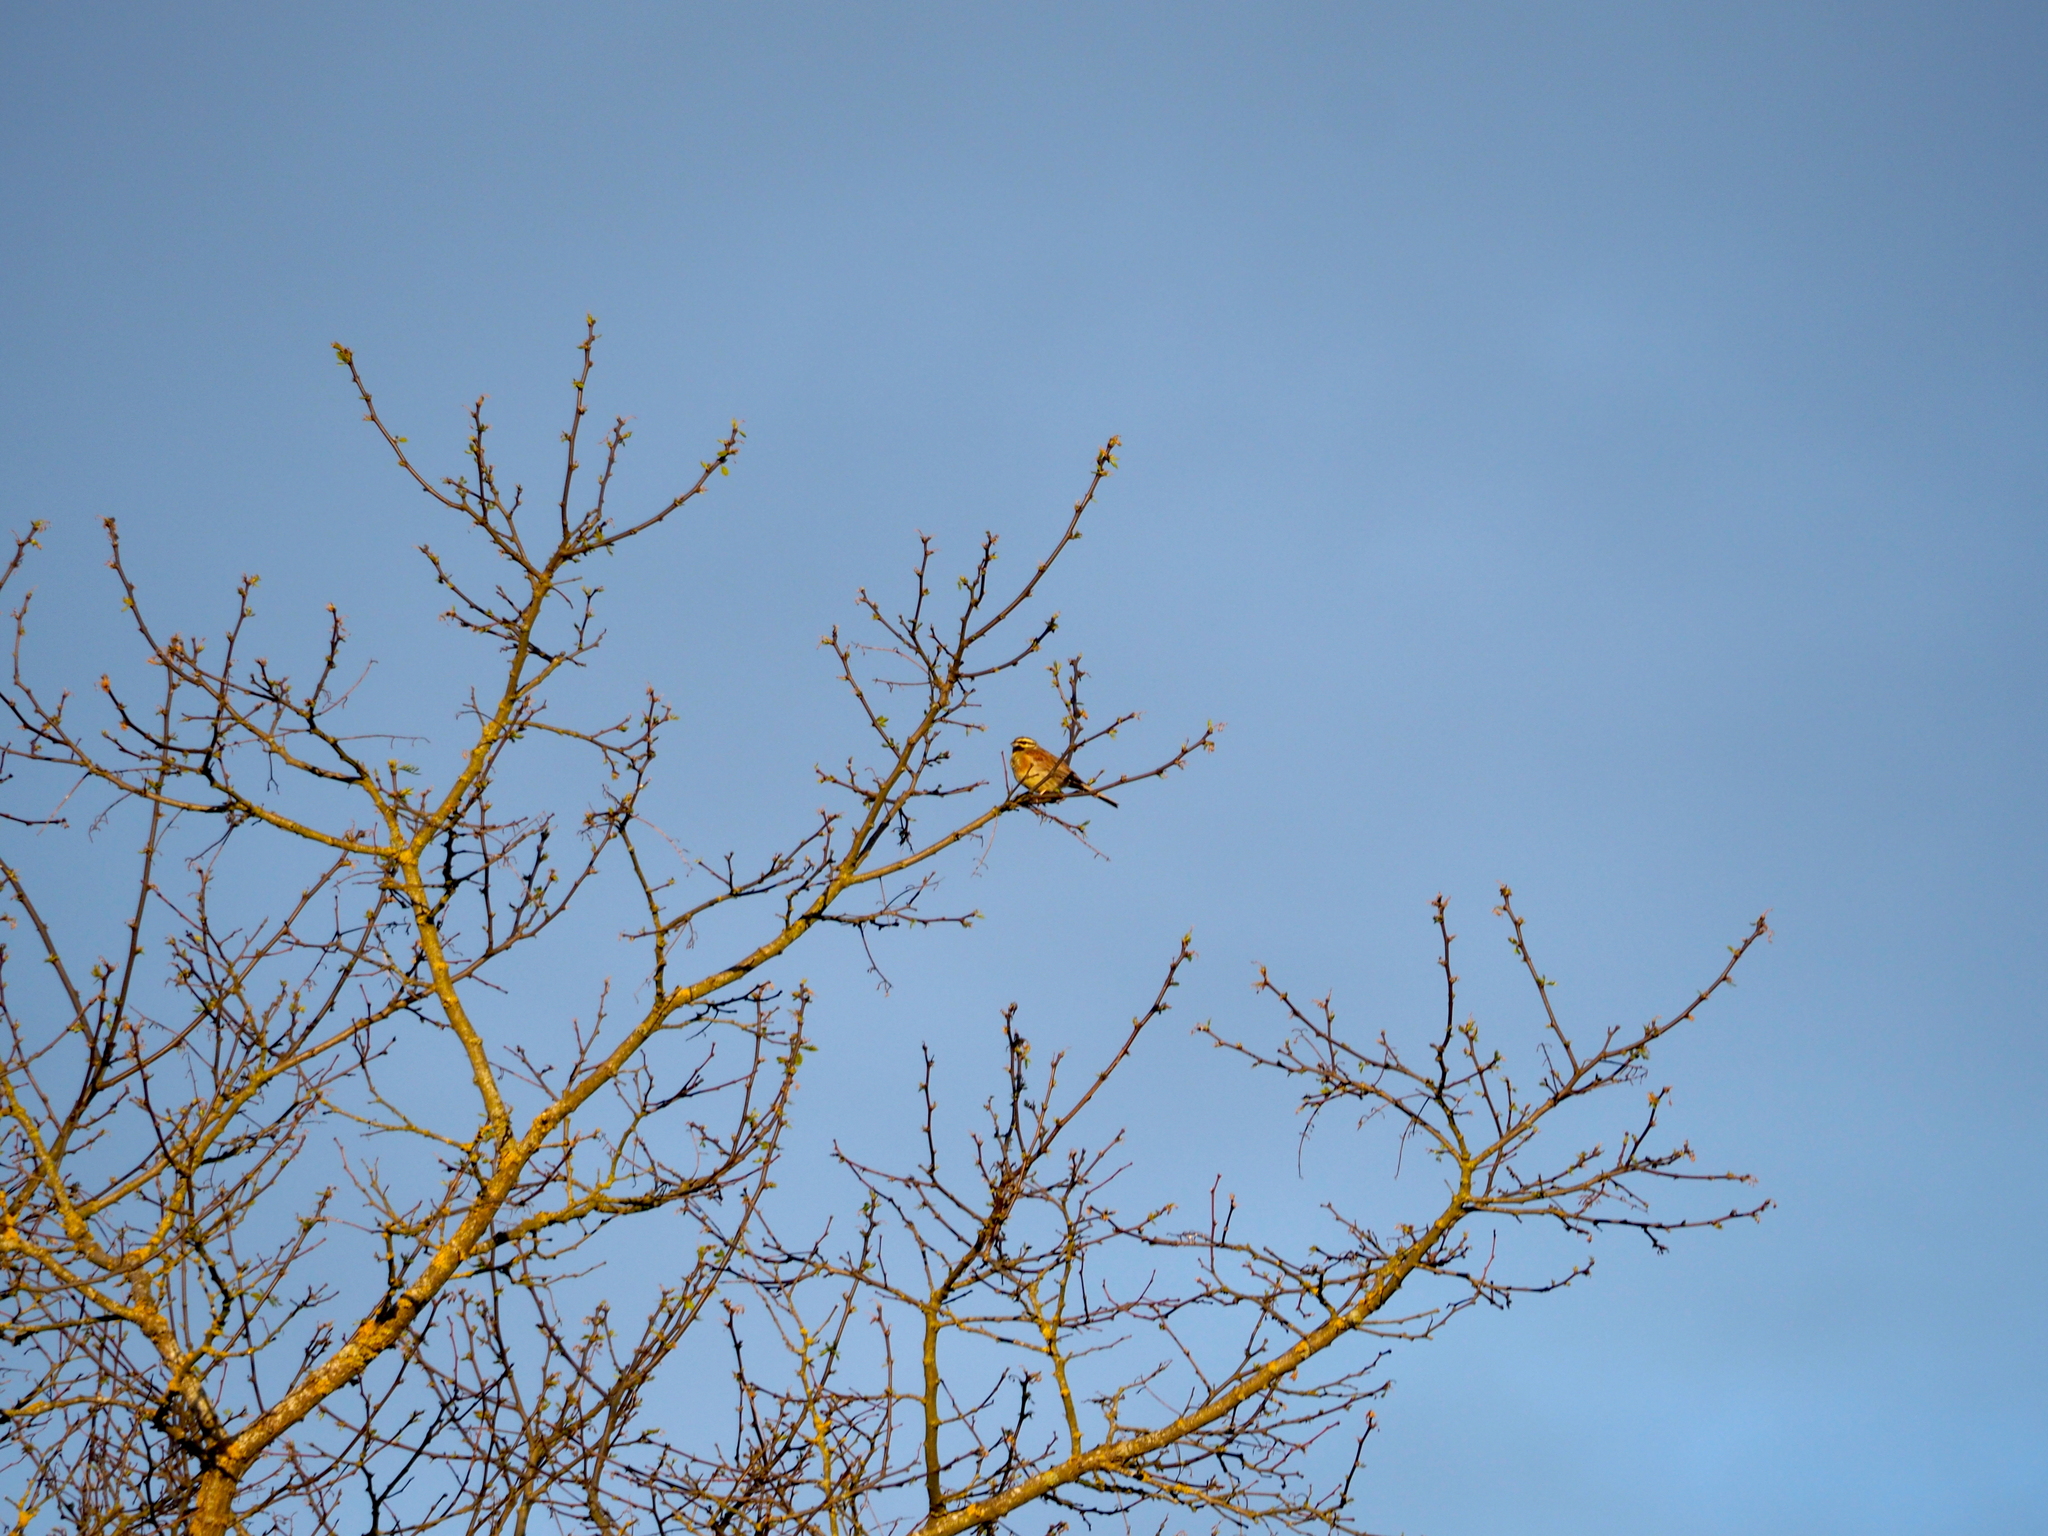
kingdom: Animalia
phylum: Chordata
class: Aves
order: Passeriformes
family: Emberizidae
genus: Emberiza
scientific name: Emberiza cirlus
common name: Cirl bunting
